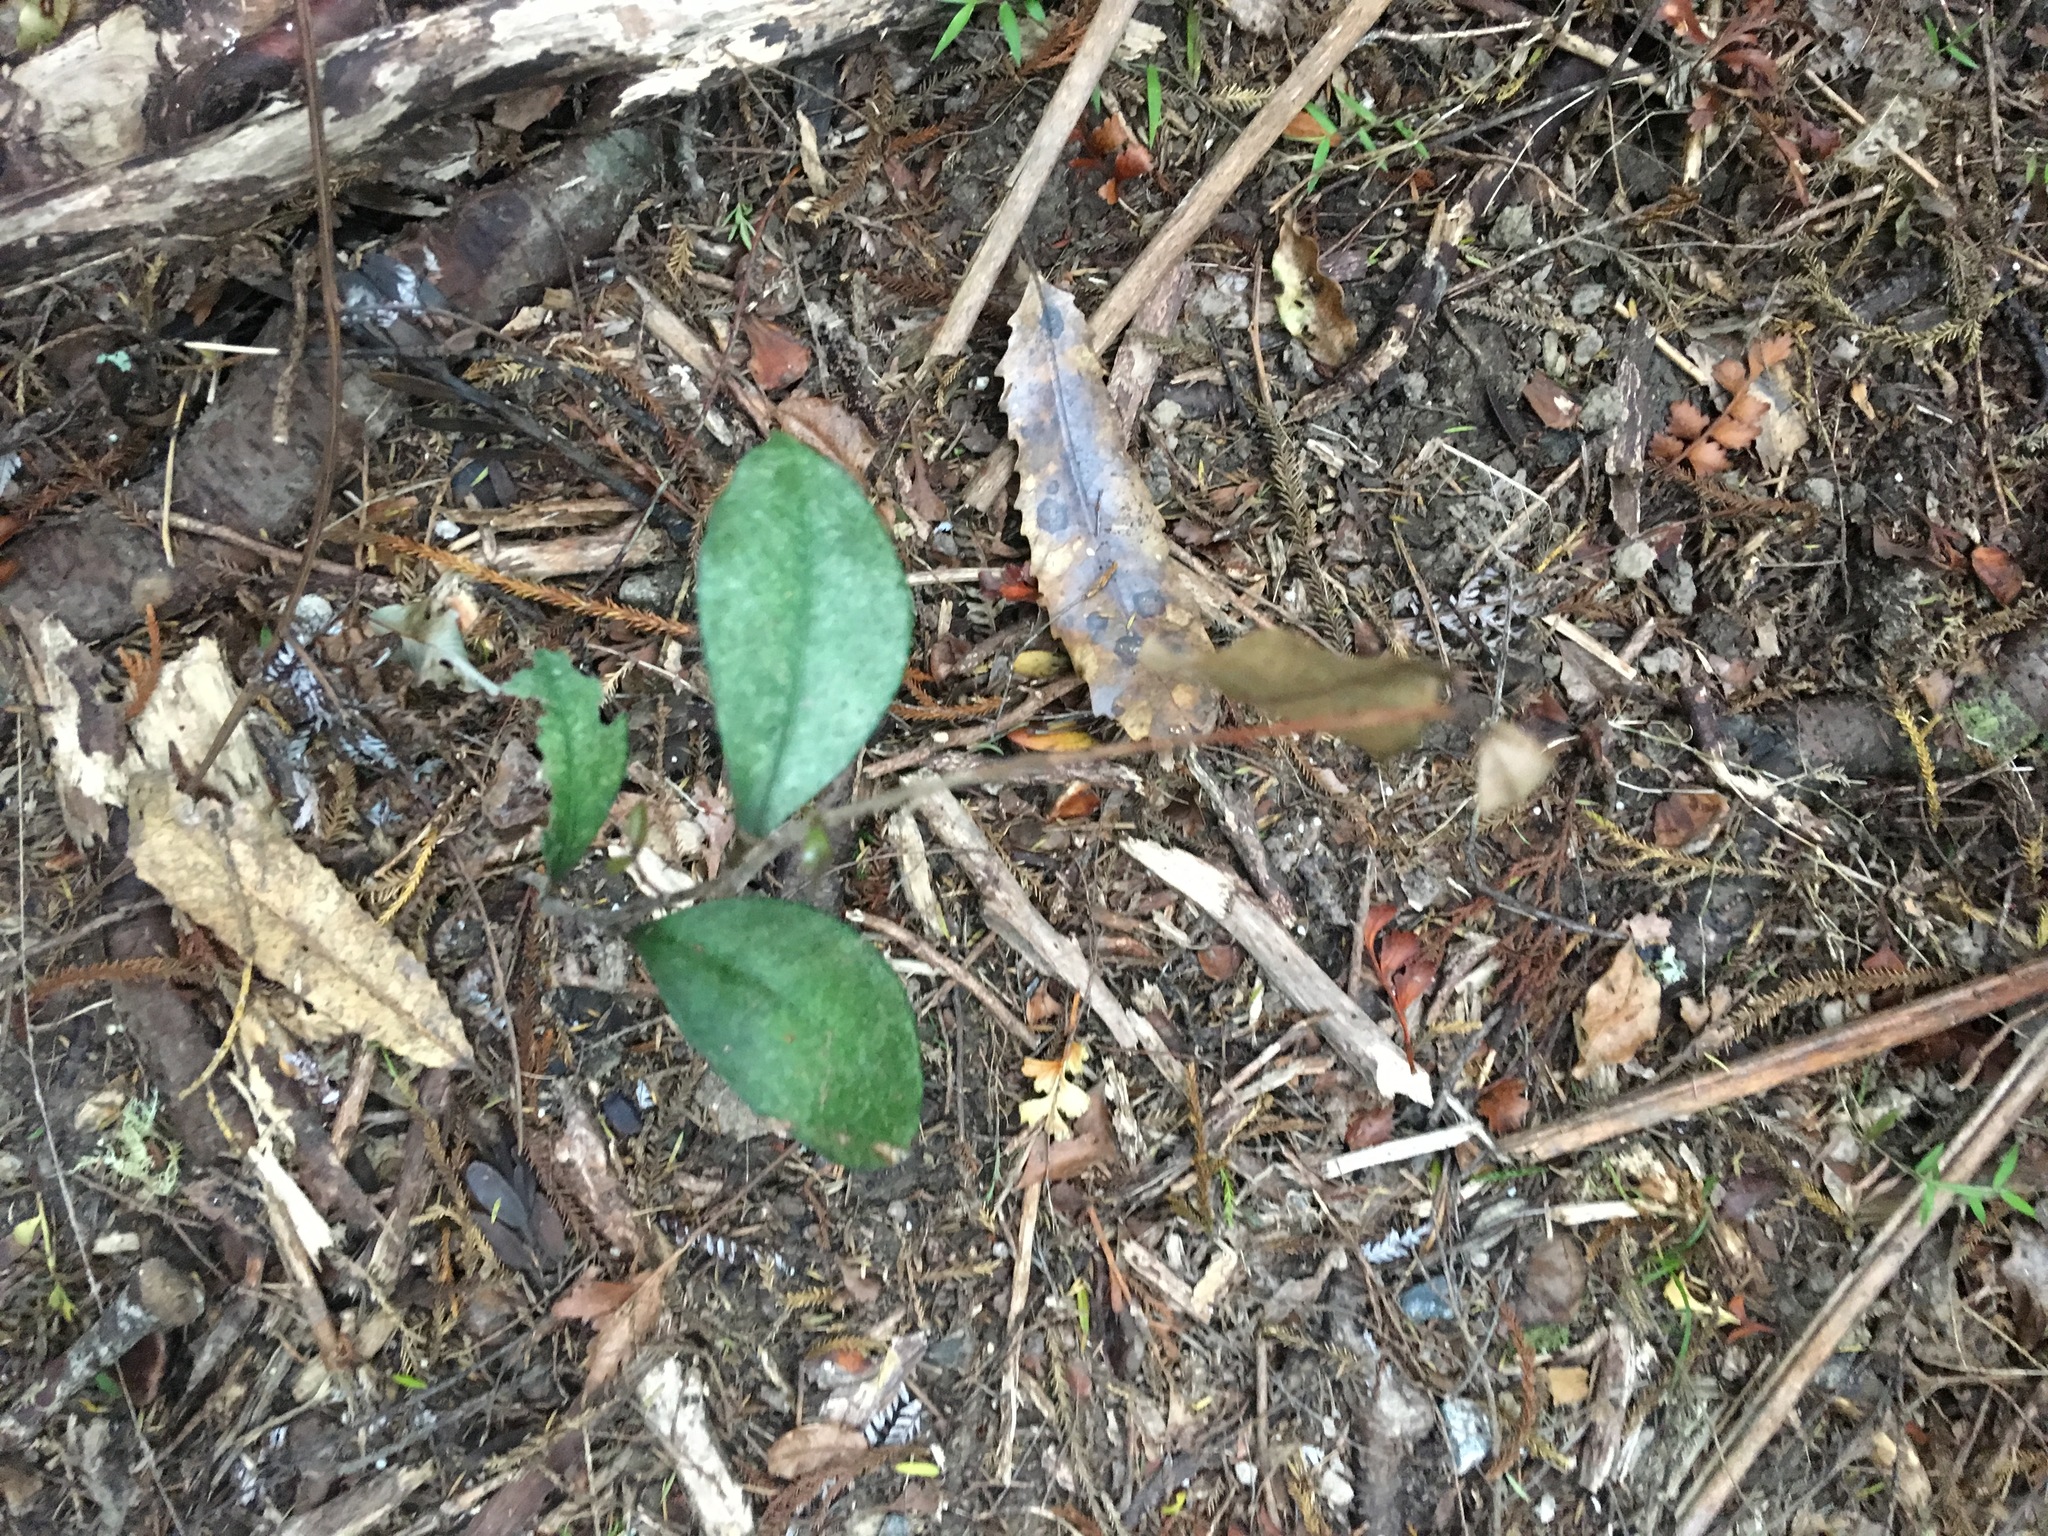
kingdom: Plantae
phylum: Tracheophyta
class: Magnoliopsida
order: Myrtales
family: Myrtaceae
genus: Syzygium
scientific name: Syzygium smithii
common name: Lilly-pilly
